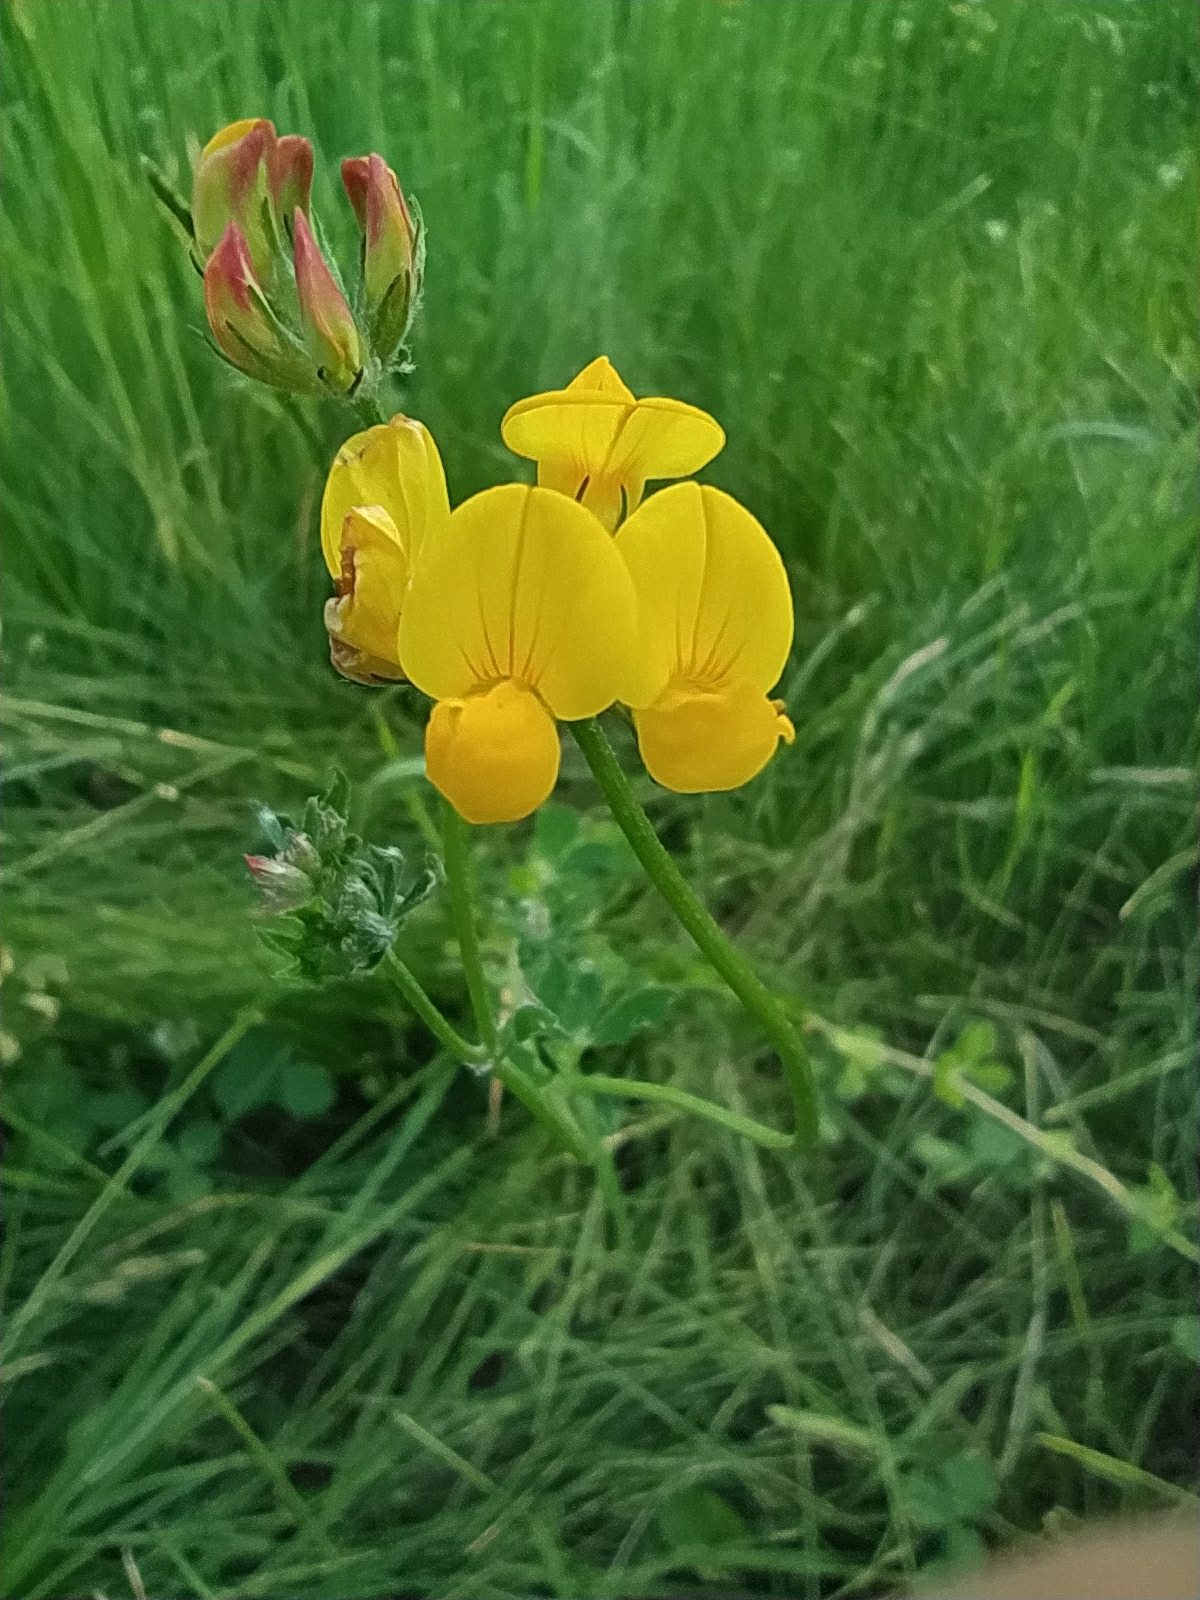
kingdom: Plantae
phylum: Tracheophyta
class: Magnoliopsida
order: Fabales
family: Fabaceae
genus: Lotus
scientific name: Lotus corniculatus
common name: Common bird's-foot-trefoil
